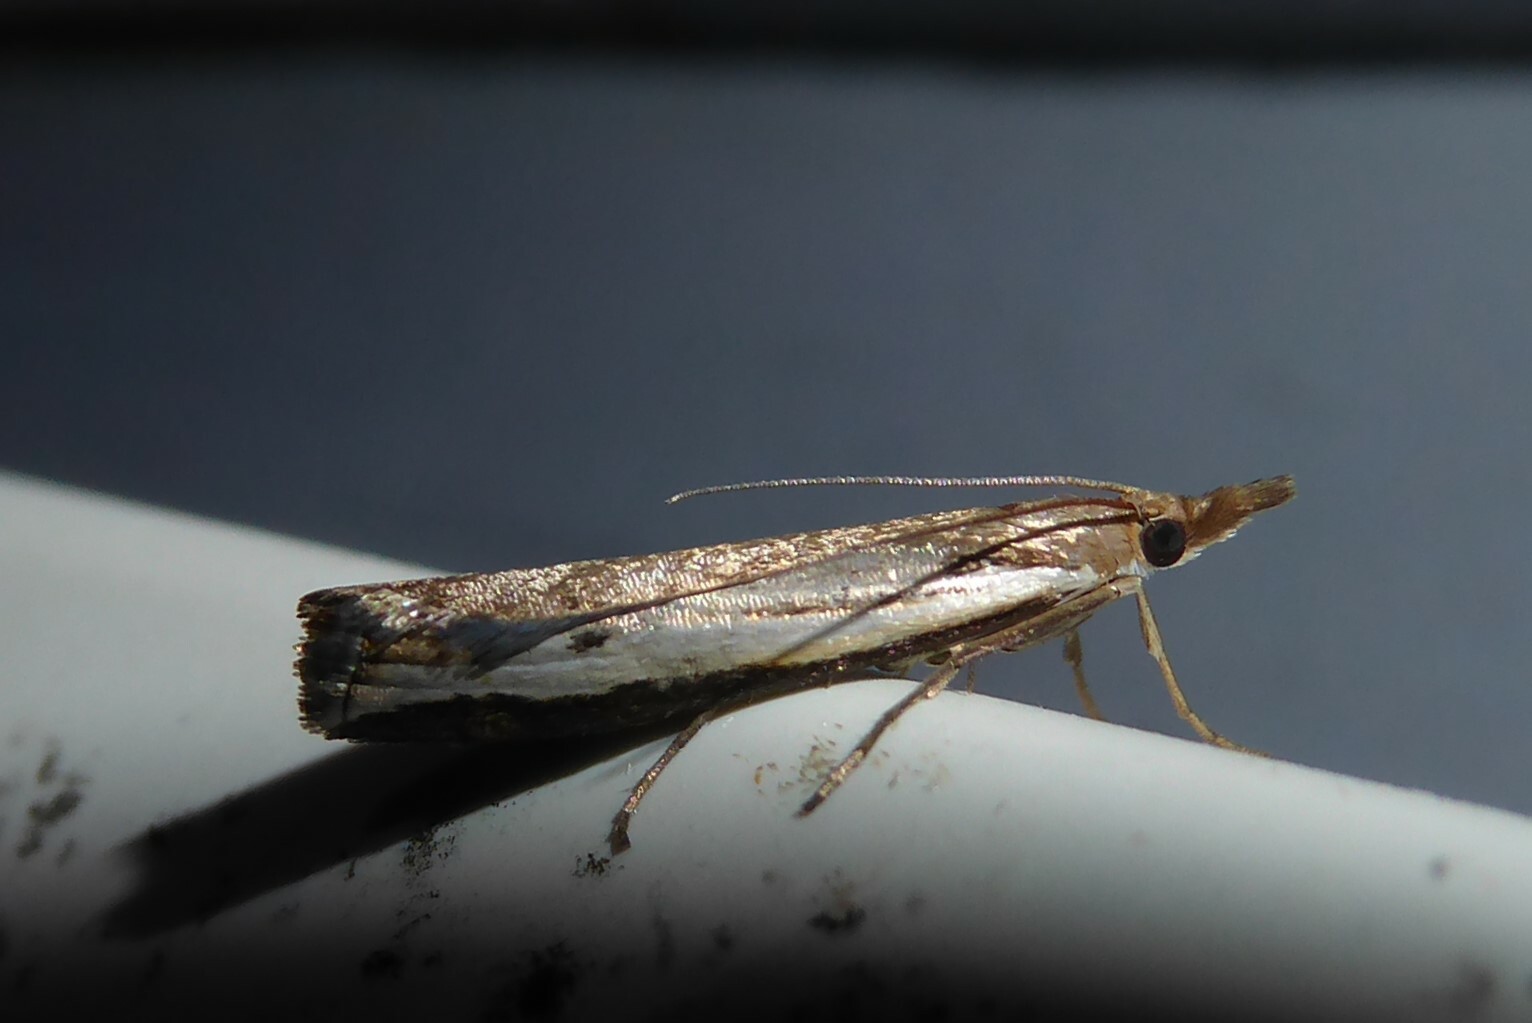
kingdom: Animalia
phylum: Arthropoda
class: Insecta
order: Lepidoptera
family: Crambidae
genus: Orocrambus
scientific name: Orocrambus flexuosellus
